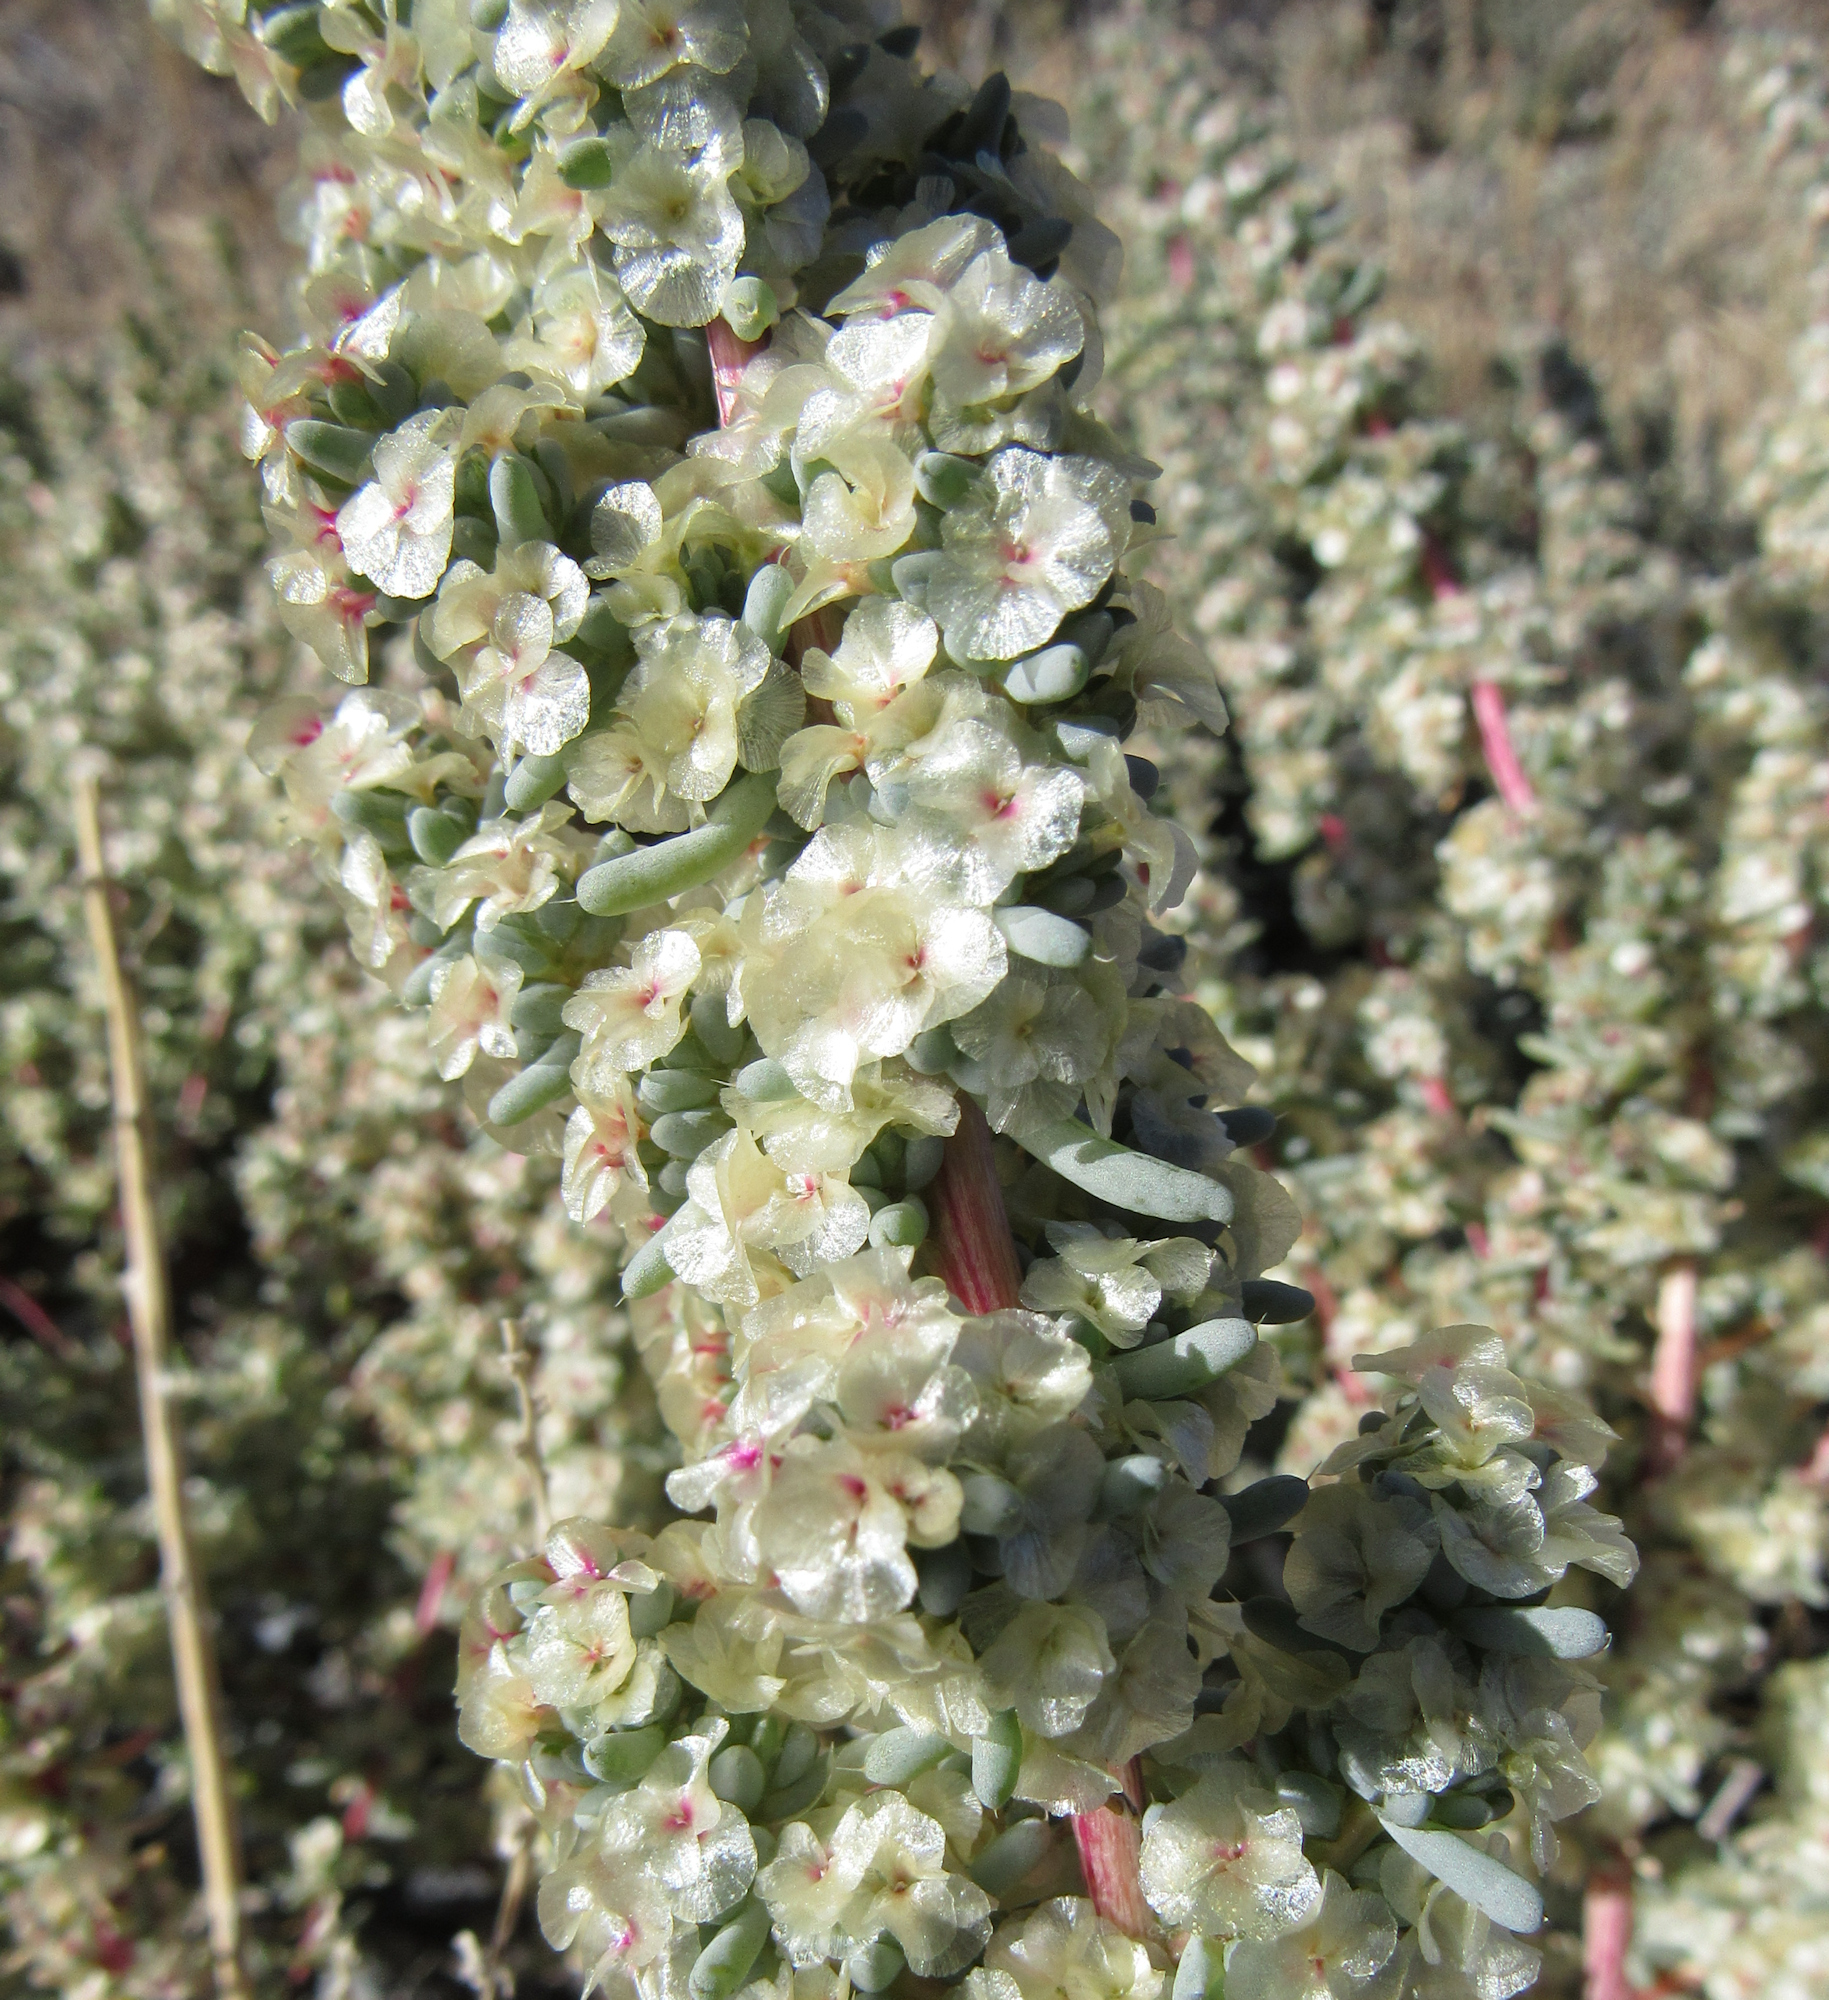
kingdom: Plantae
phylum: Tracheophyta
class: Magnoliopsida
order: Caryophyllales
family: Amaranthaceae
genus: Halogeton
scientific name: Halogeton glomeratus
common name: Saltlover
